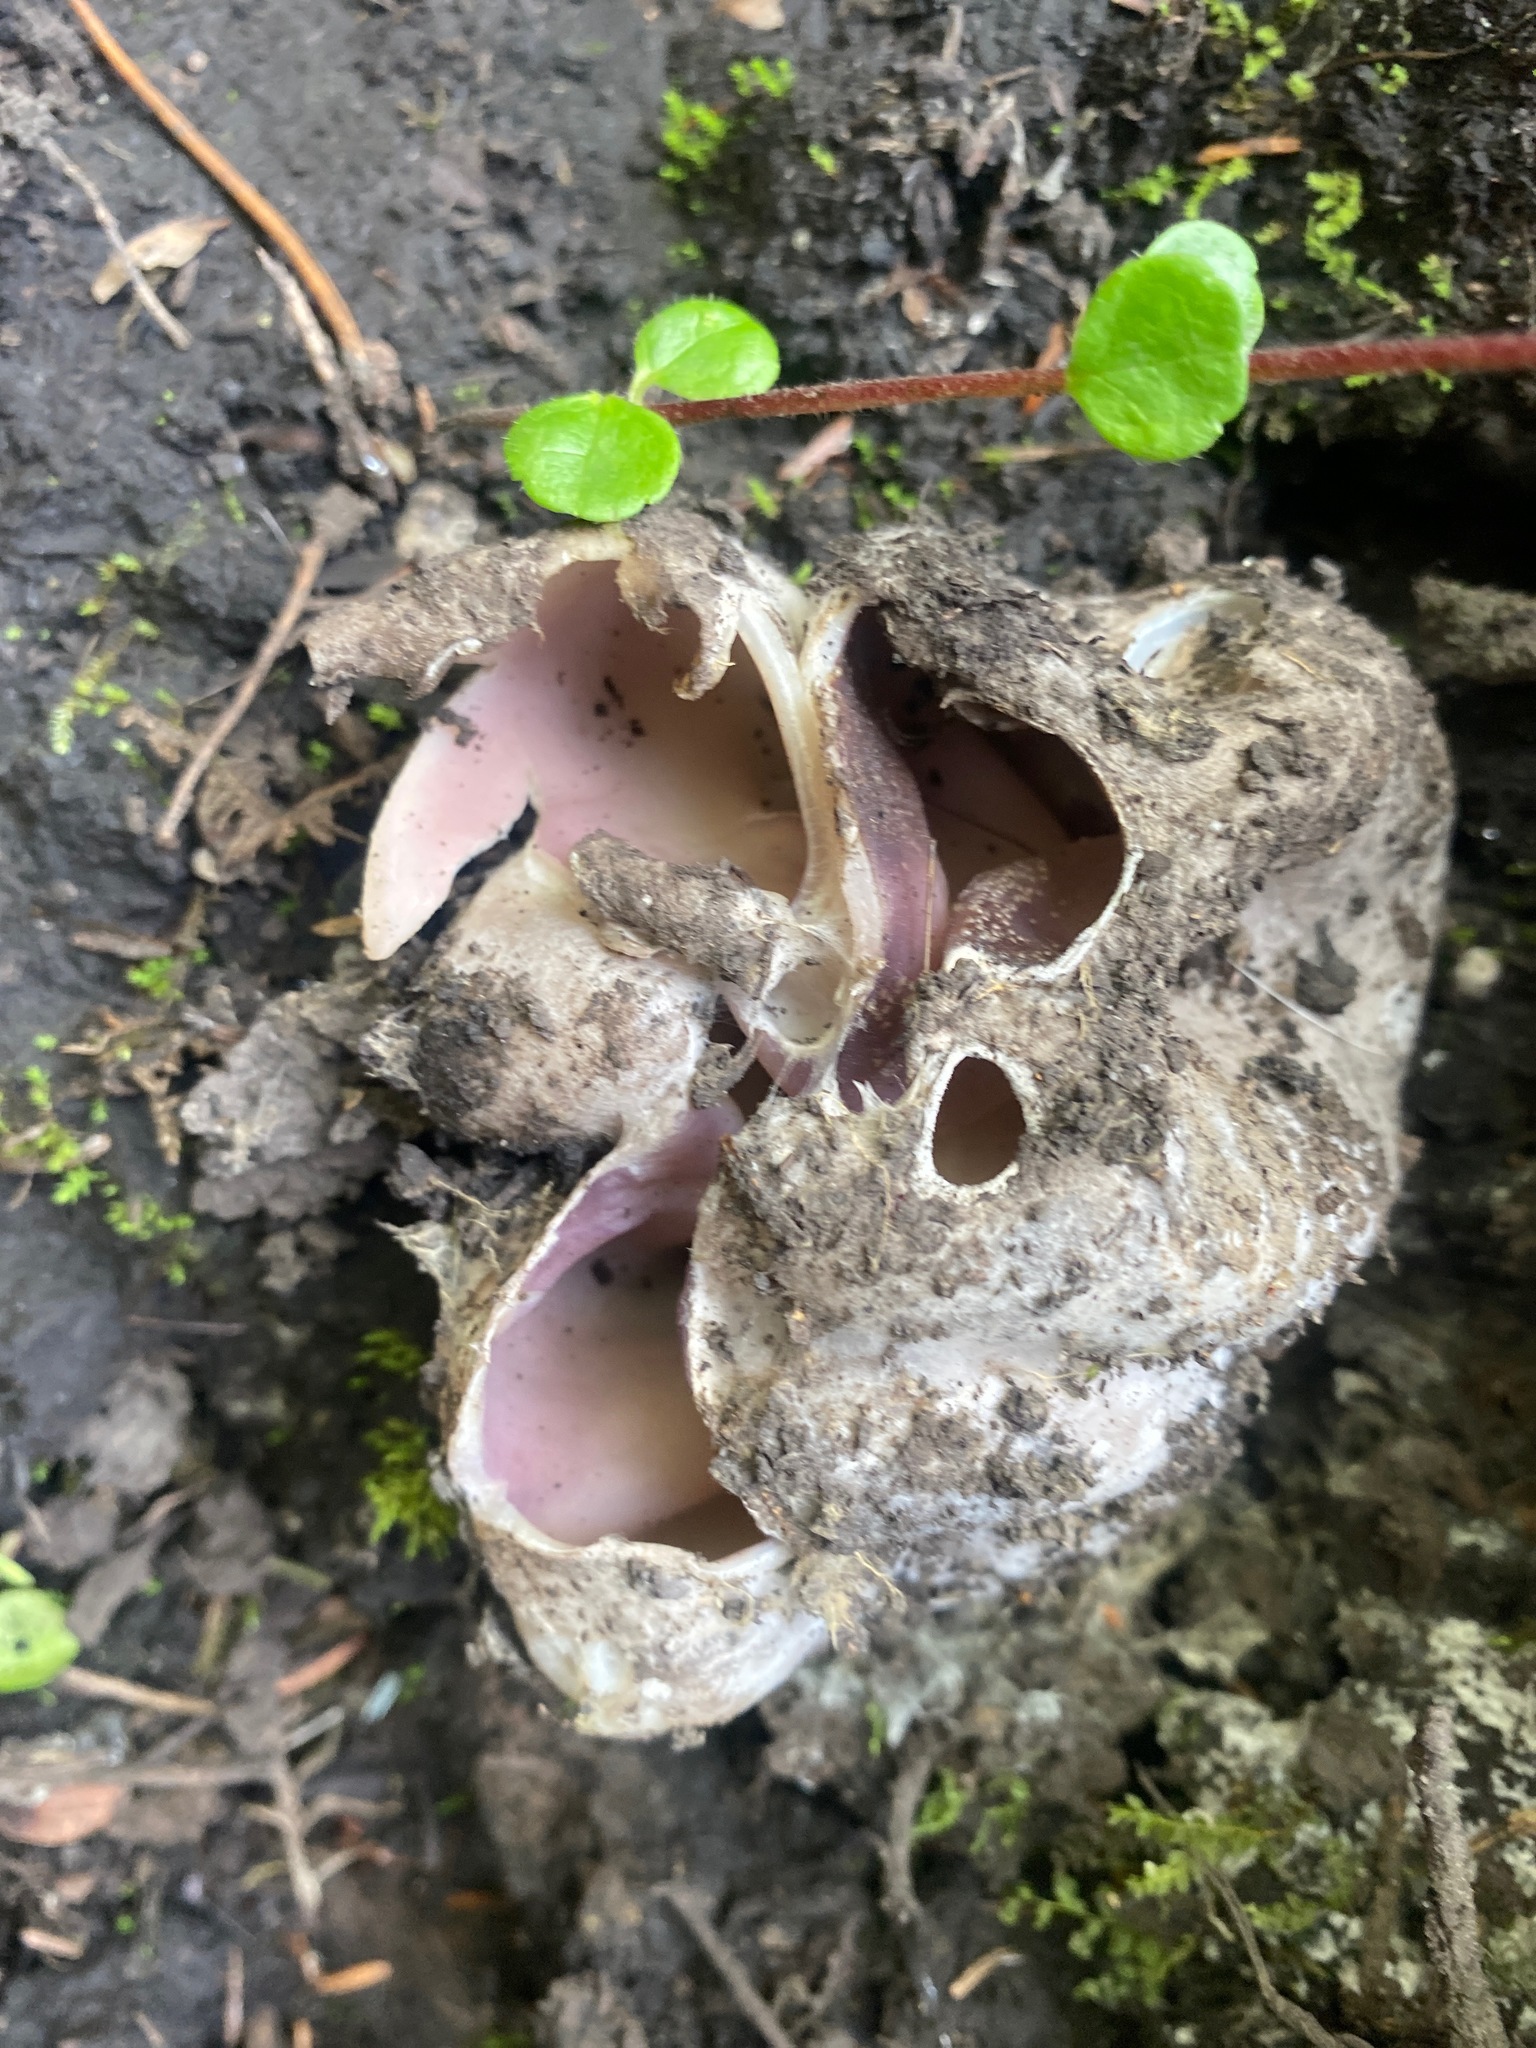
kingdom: Fungi
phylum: Ascomycota
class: Pezizomycetes
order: Pezizales
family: Pezizaceae
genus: Sarcosphaera
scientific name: Sarcosphaera coronaria
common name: Violet crowncup
